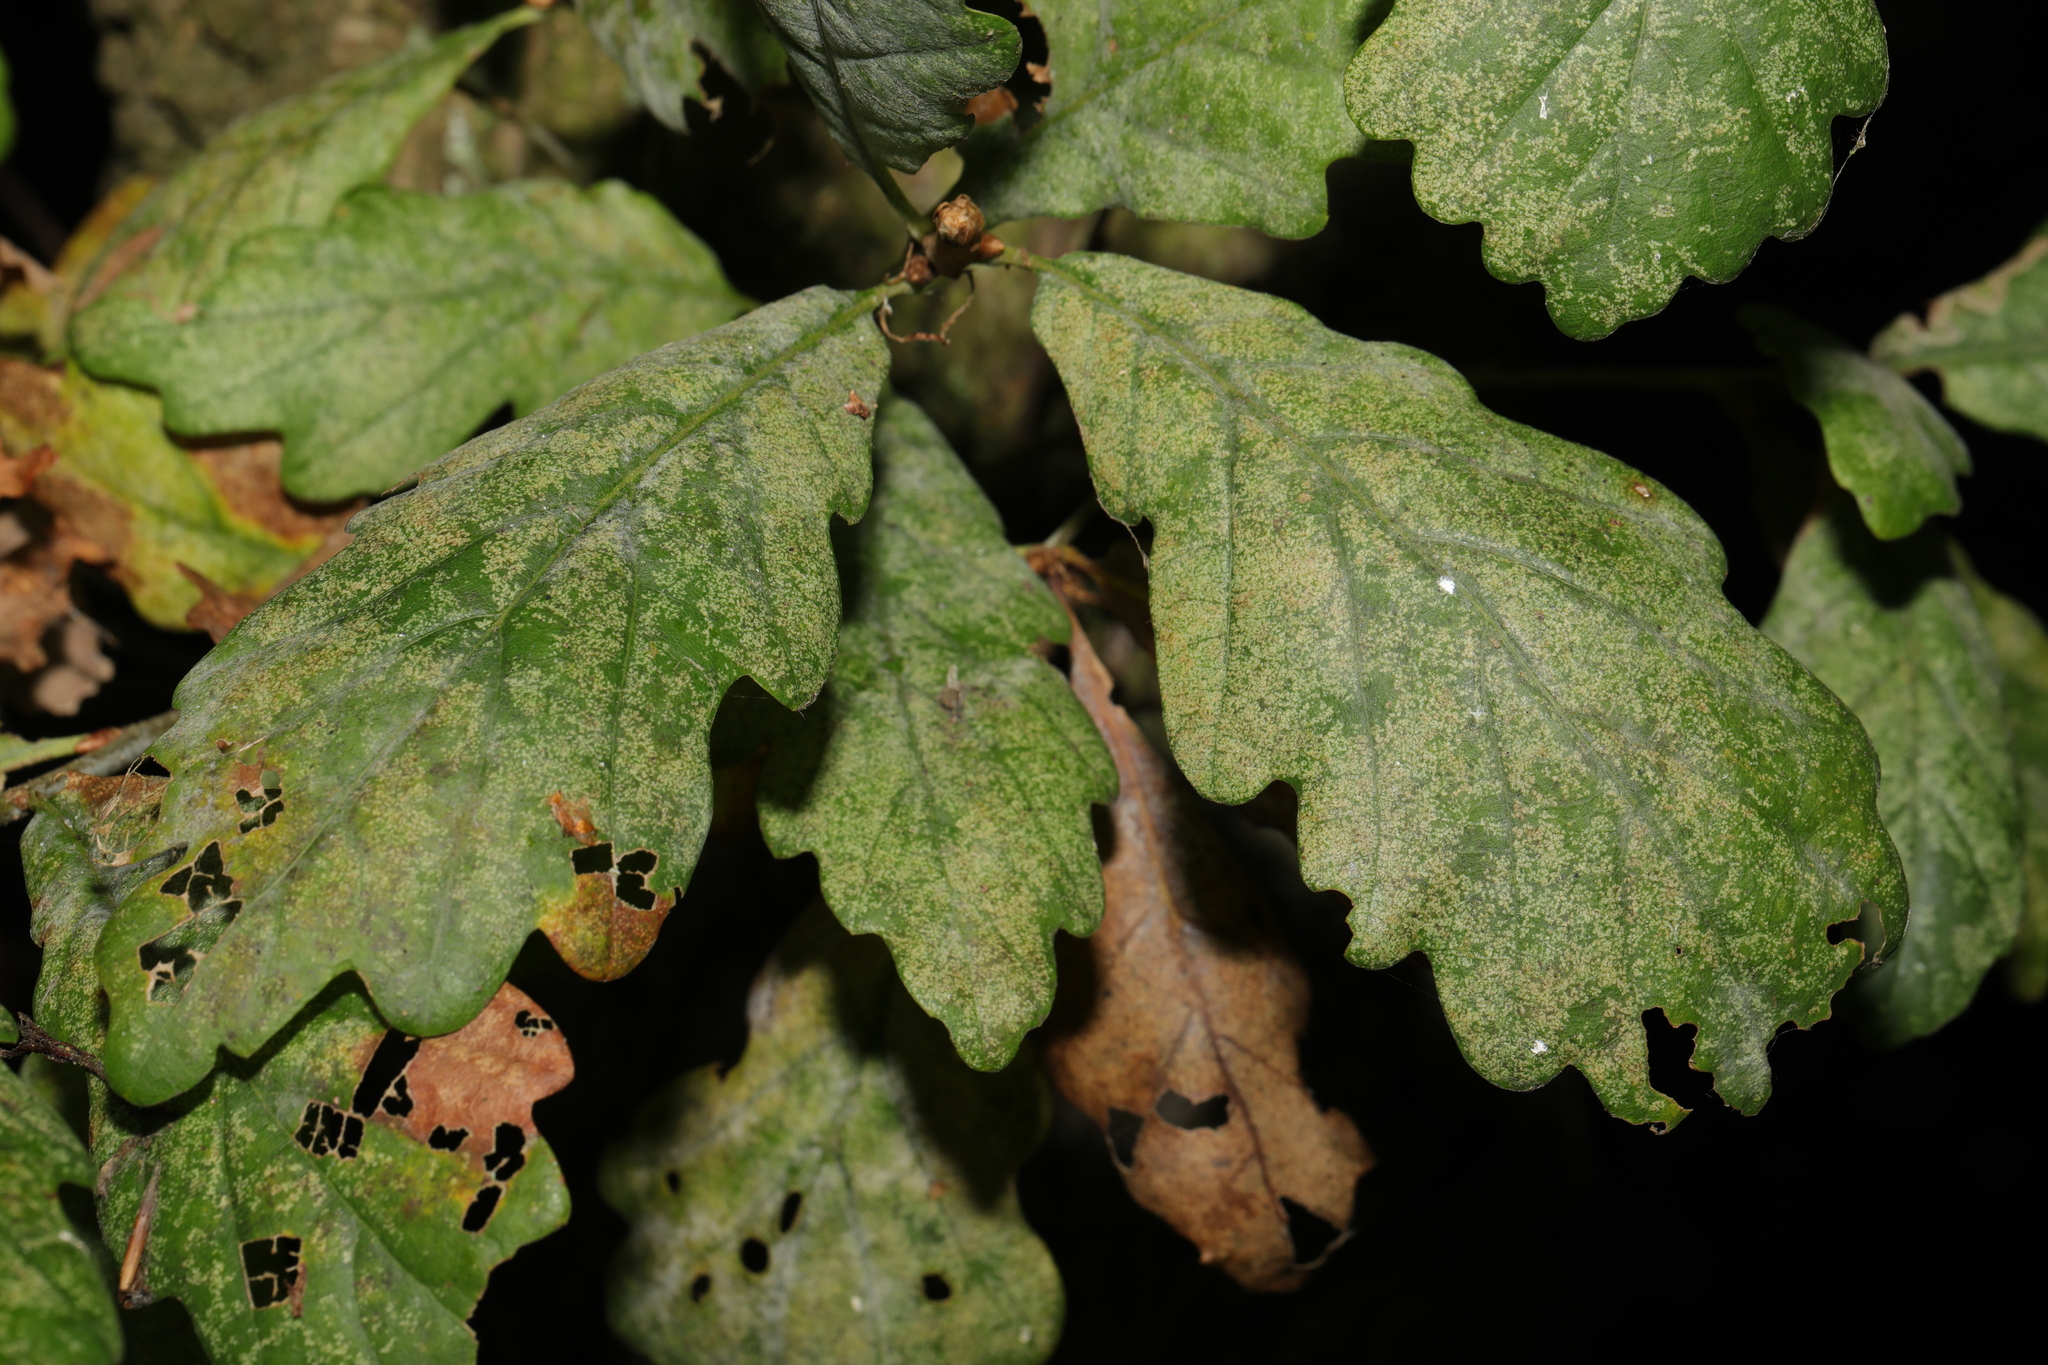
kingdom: Fungi
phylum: Ascomycota
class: Leotiomycetes
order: Helotiales
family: Erysiphaceae
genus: Erysiphe
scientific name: Erysiphe alphitoides
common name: Oak mildew
